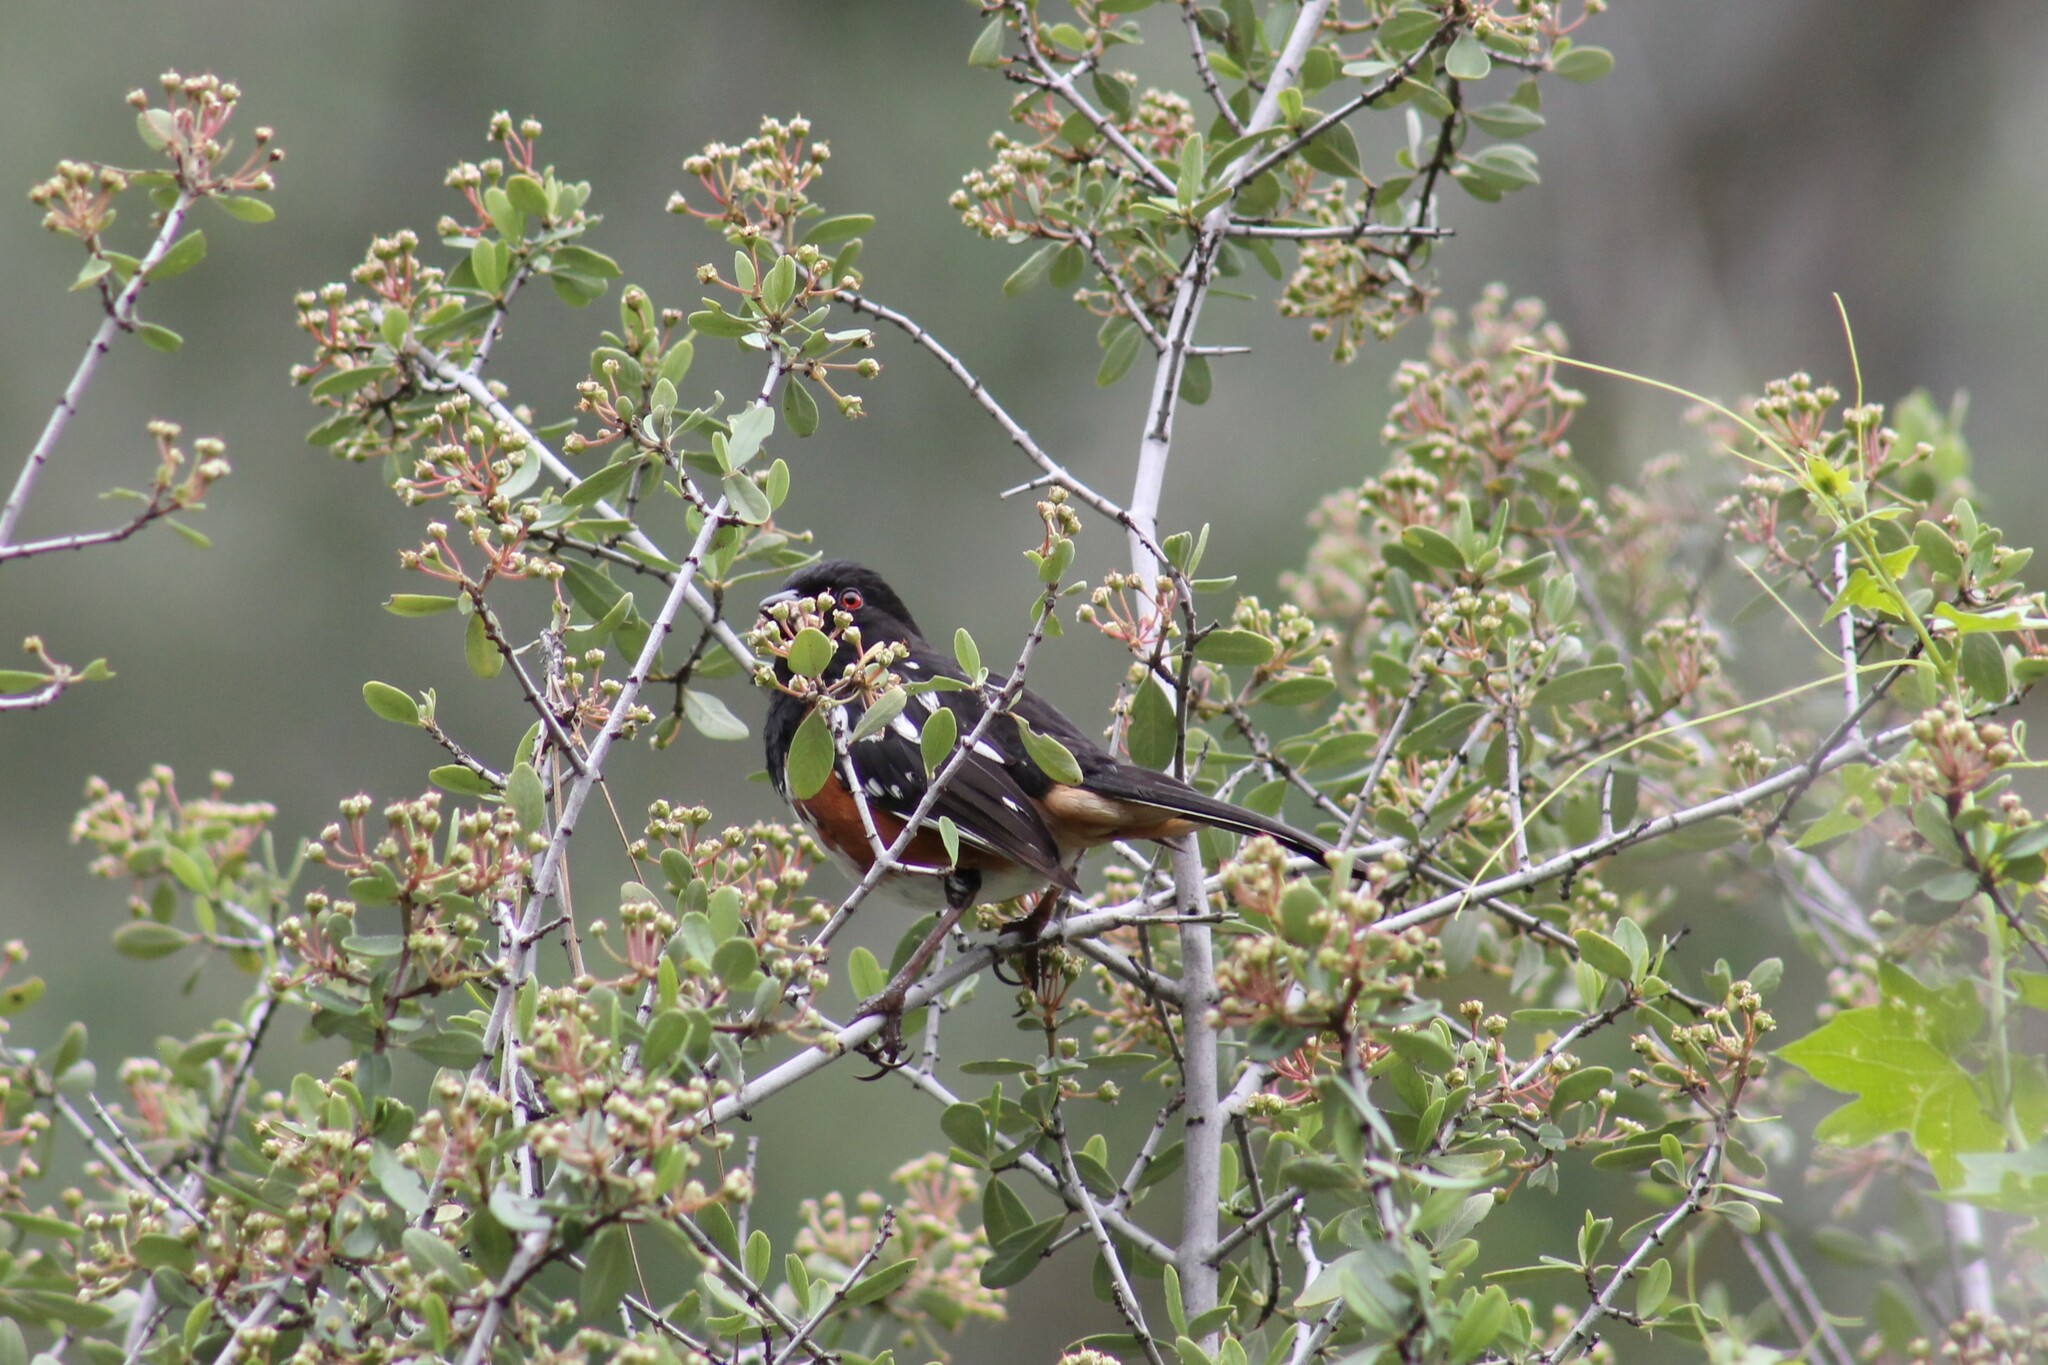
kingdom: Animalia
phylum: Chordata
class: Aves
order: Passeriformes
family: Passerellidae
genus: Pipilo
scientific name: Pipilo maculatus
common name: Spotted towhee
